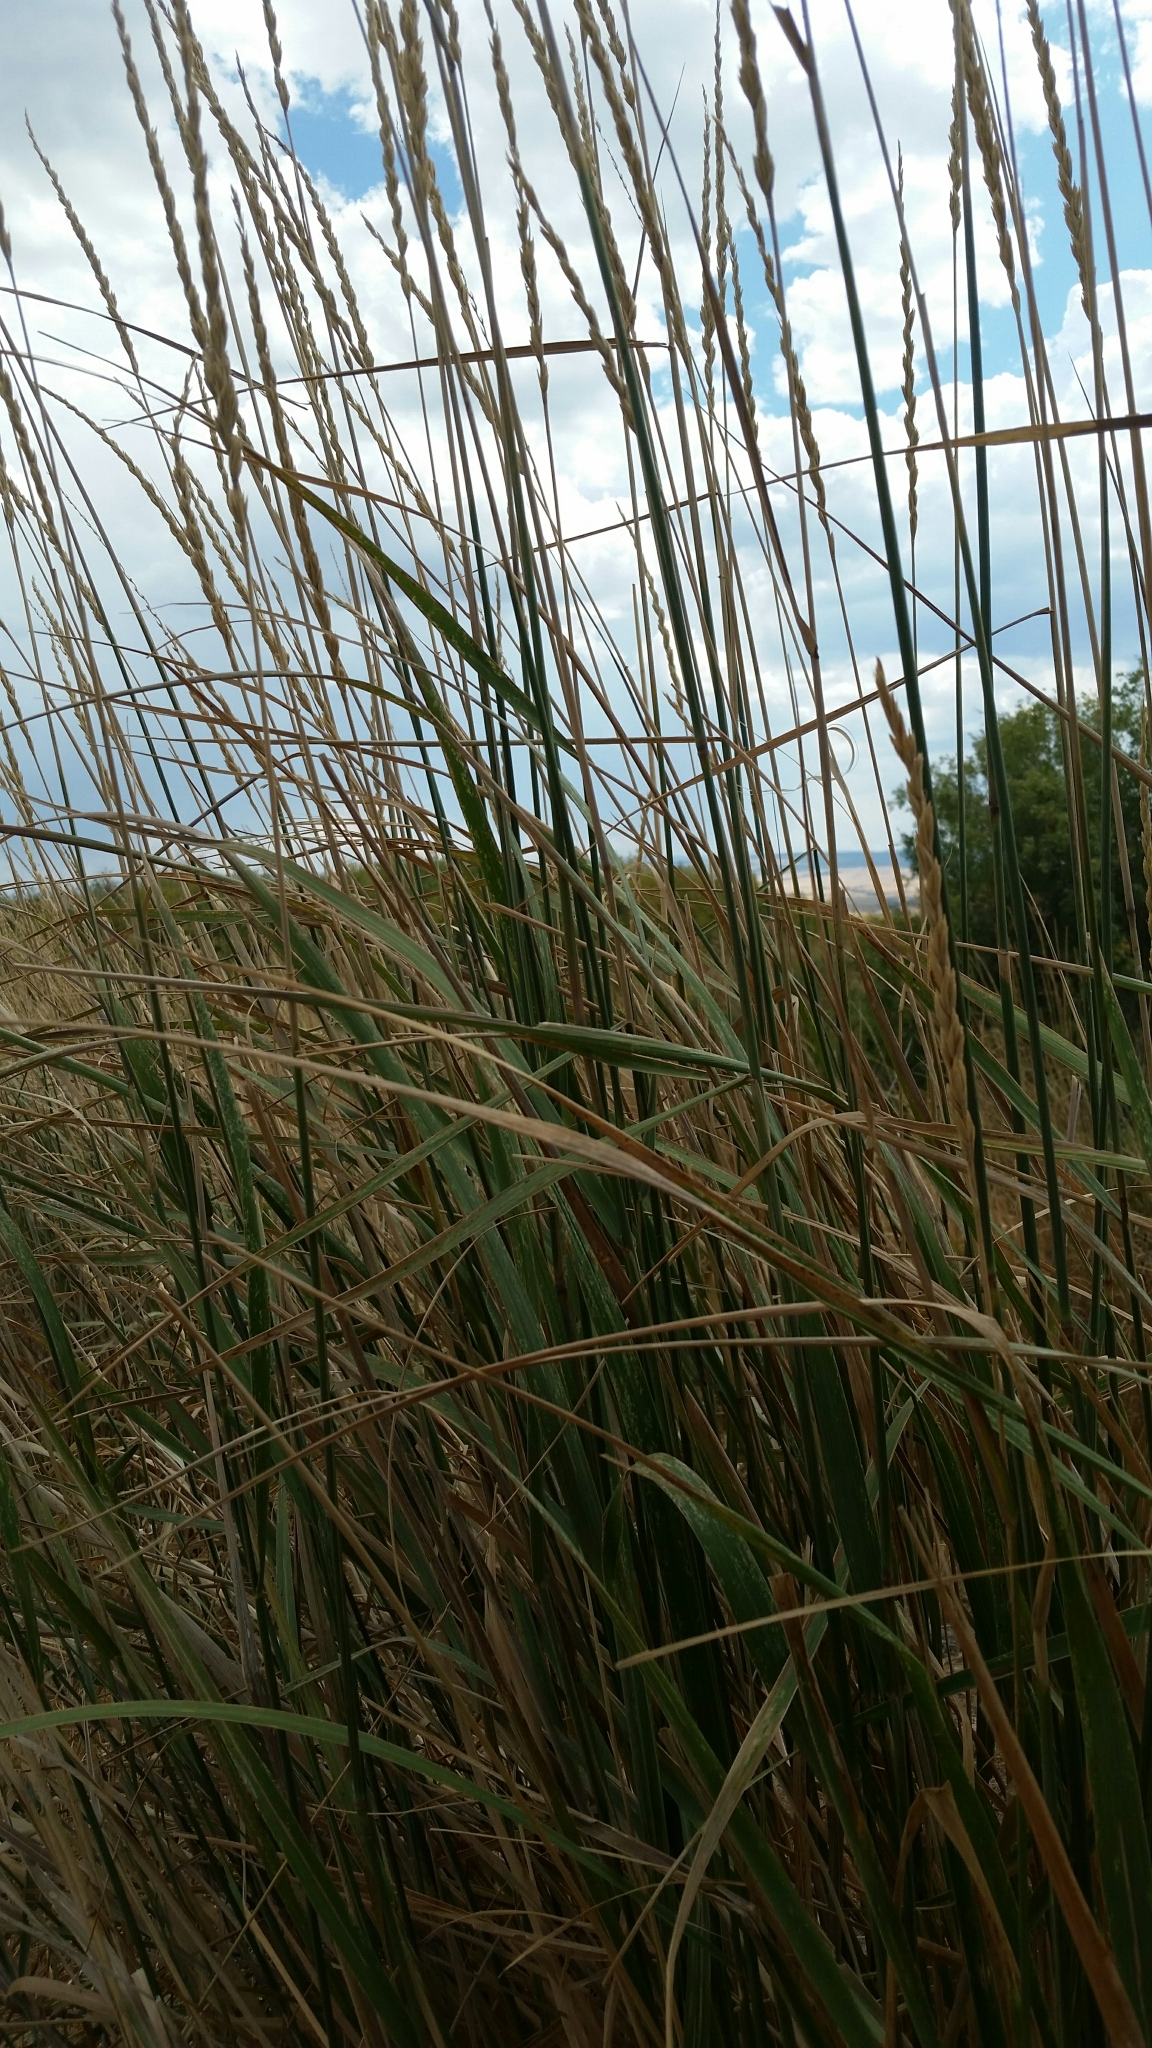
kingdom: Plantae
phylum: Tracheophyta
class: Liliopsida
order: Poales
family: Poaceae
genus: Leymus
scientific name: Leymus cinereus
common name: Basin wild rye
